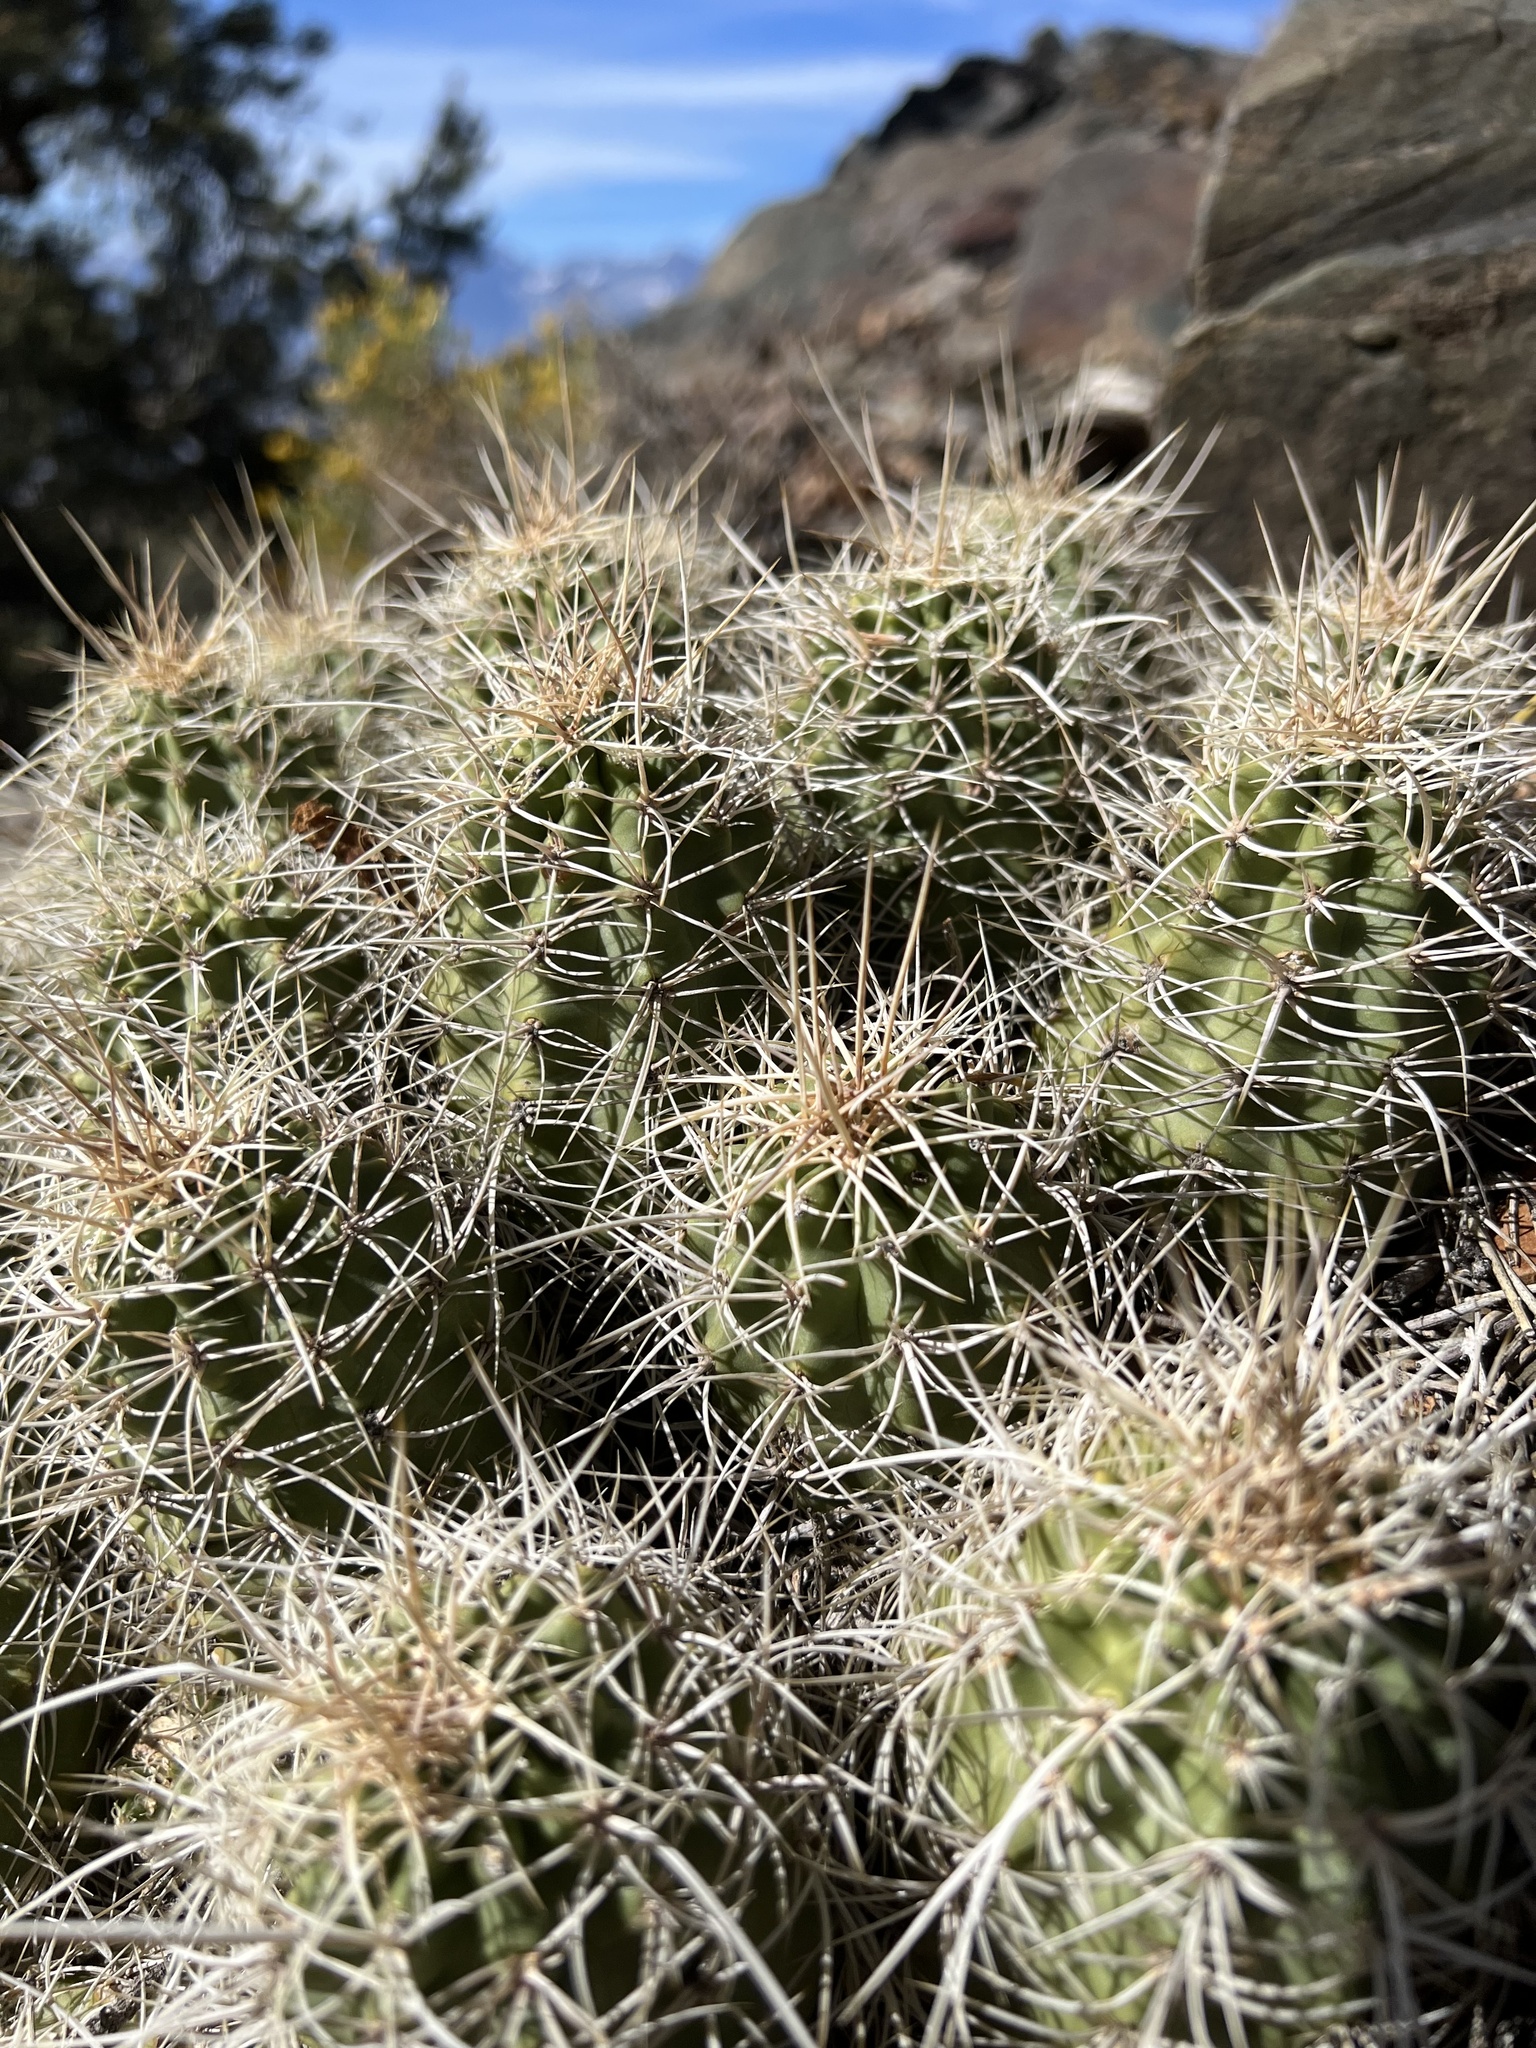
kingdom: Plantae
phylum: Tracheophyta
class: Magnoliopsida
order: Caryophyllales
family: Cactaceae
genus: Echinocereus
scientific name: Echinocereus triglochidiatus
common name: Claretcup hedgehog
